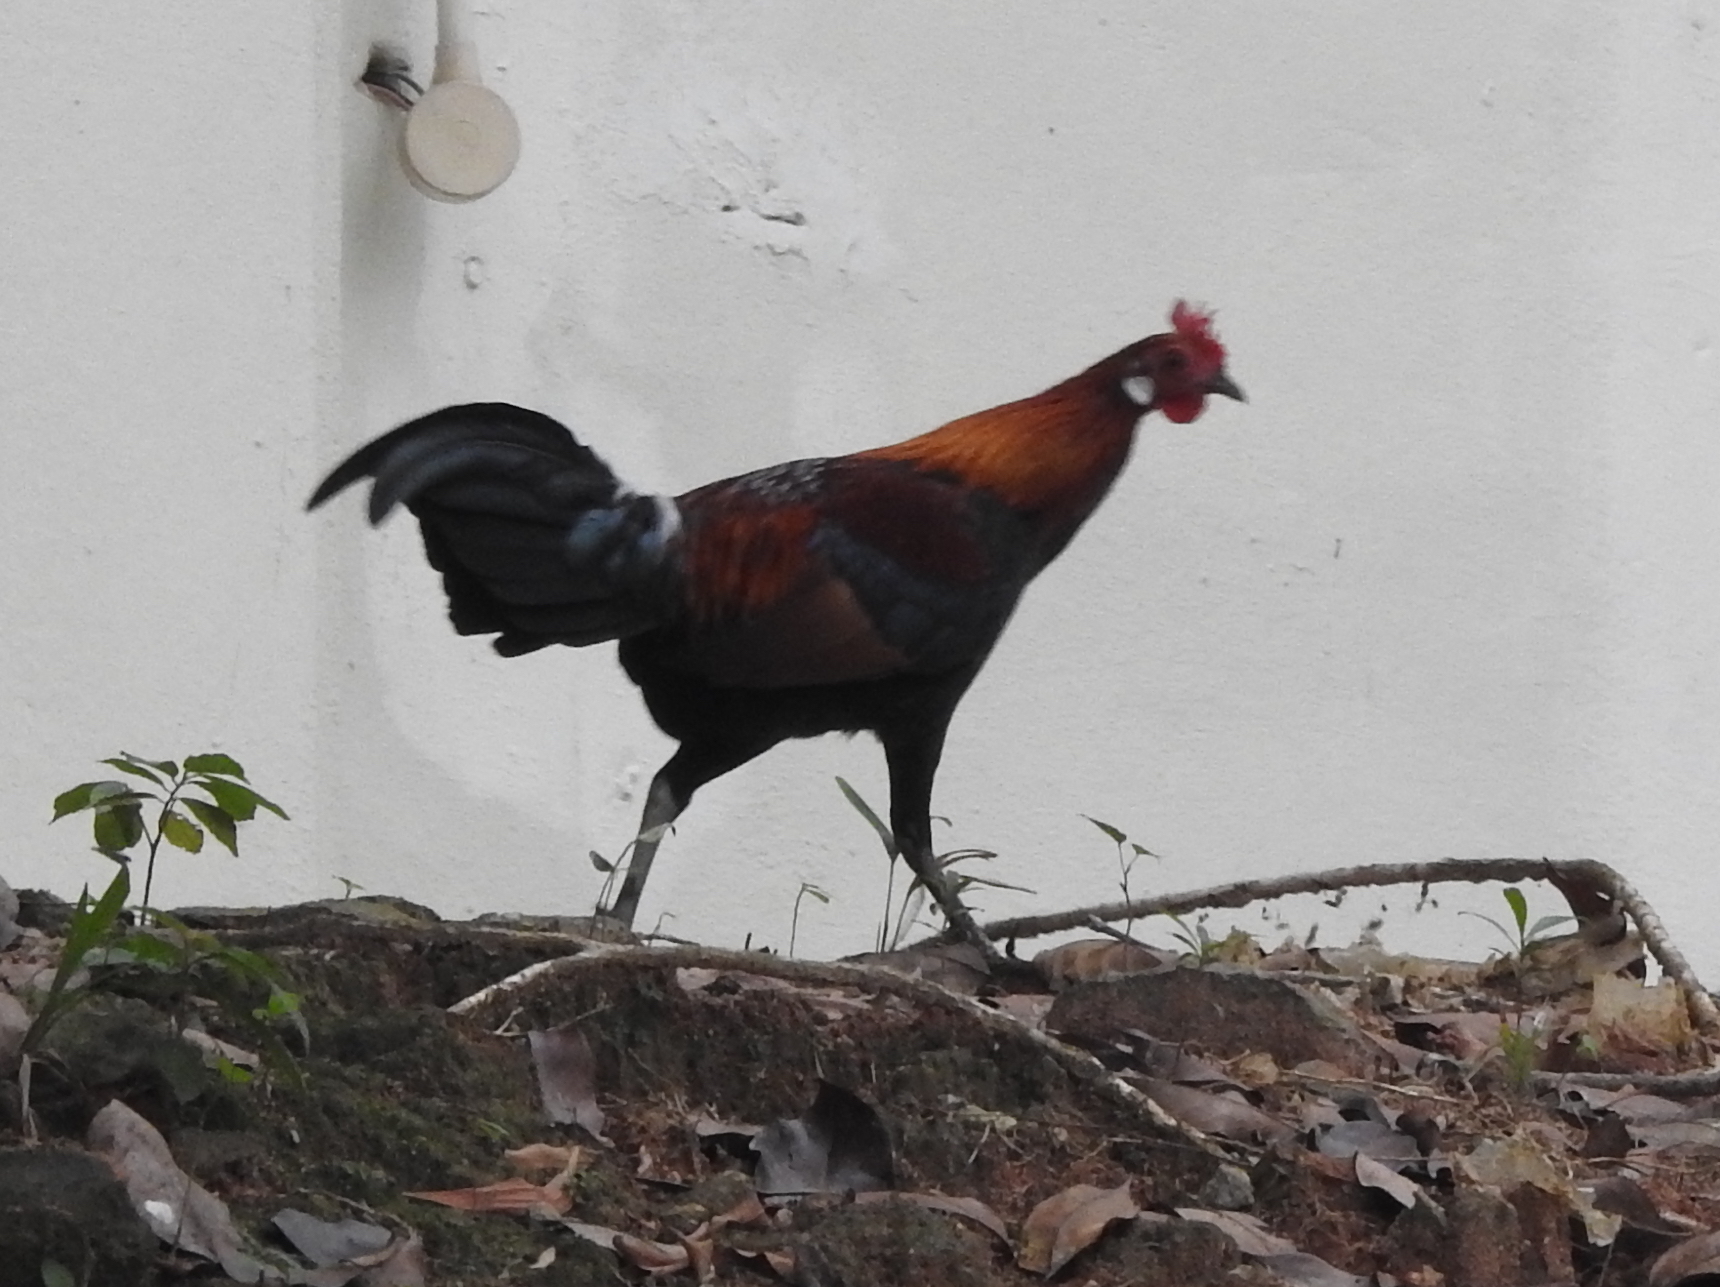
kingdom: Animalia
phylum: Chordata
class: Aves
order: Galliformes
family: Phasianidae
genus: Gallus
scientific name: Gallus gallus
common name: Red junglefowl
